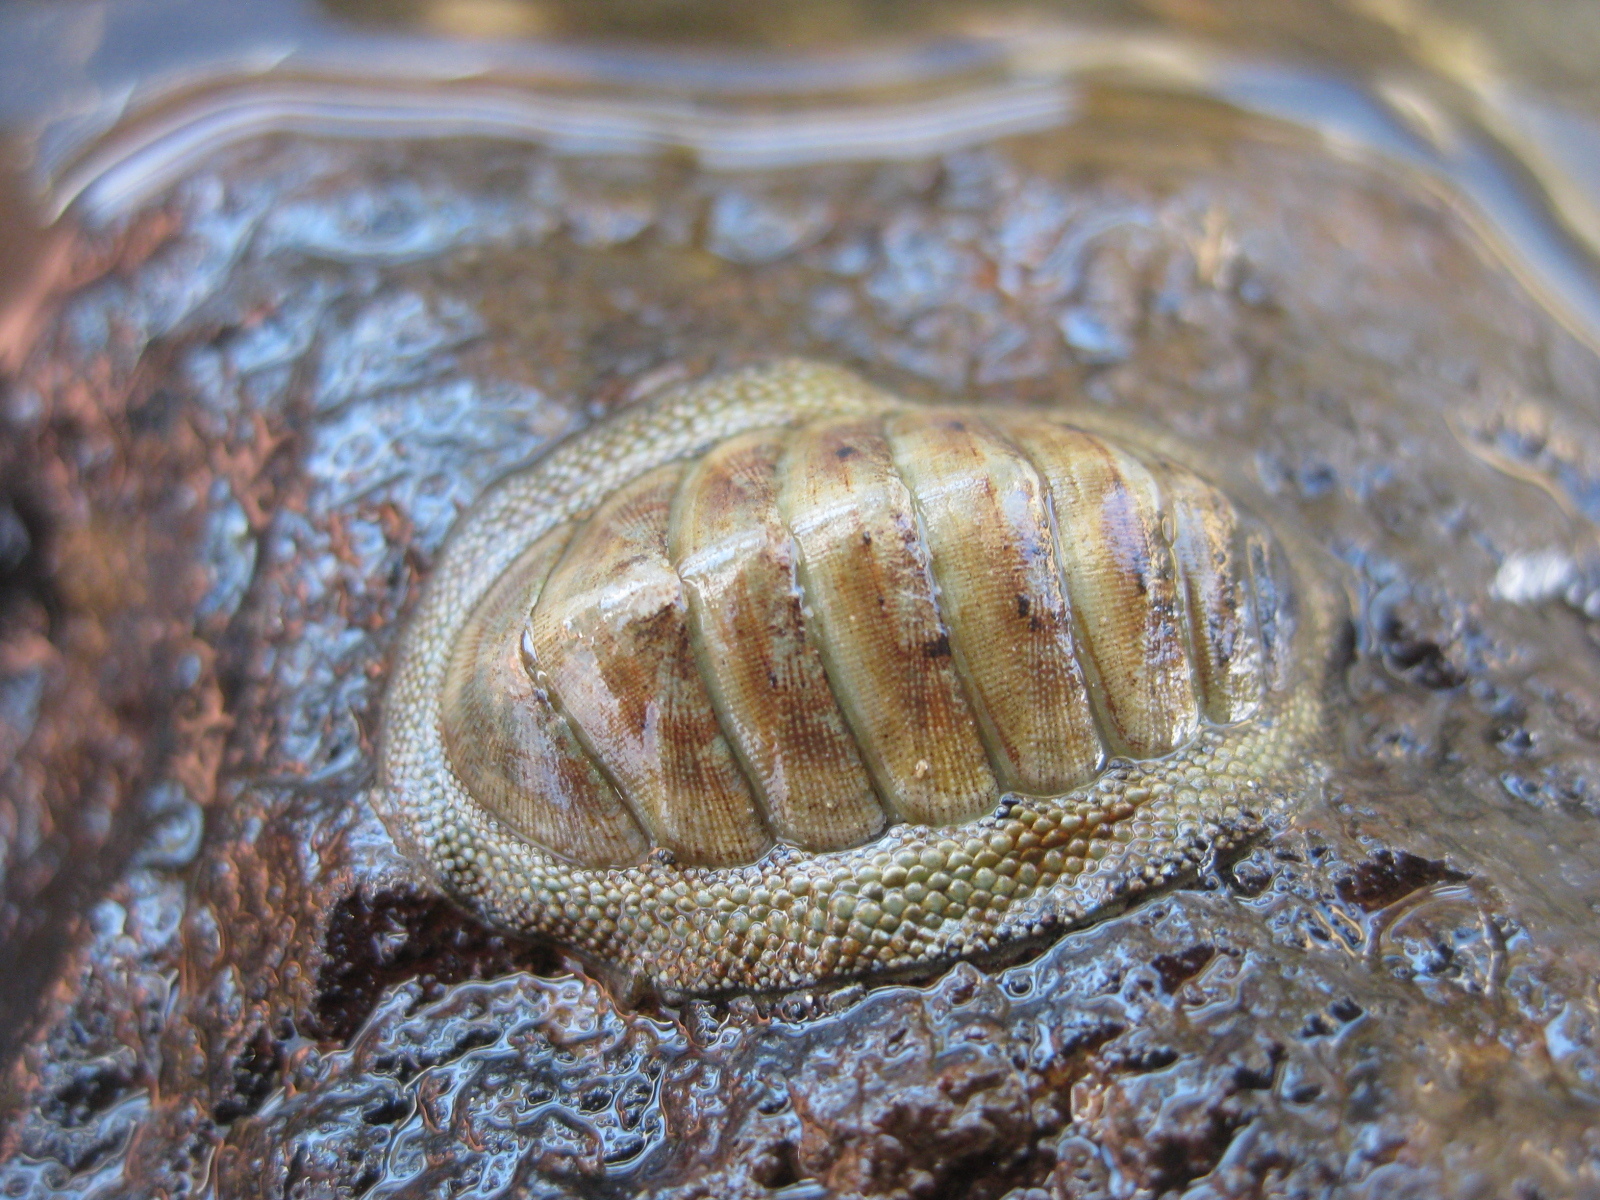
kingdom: Animalia
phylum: Mollusca
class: Polyplacophora
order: Chitonida
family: Chitonidae
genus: Chiton
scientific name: Chiton glaucus
